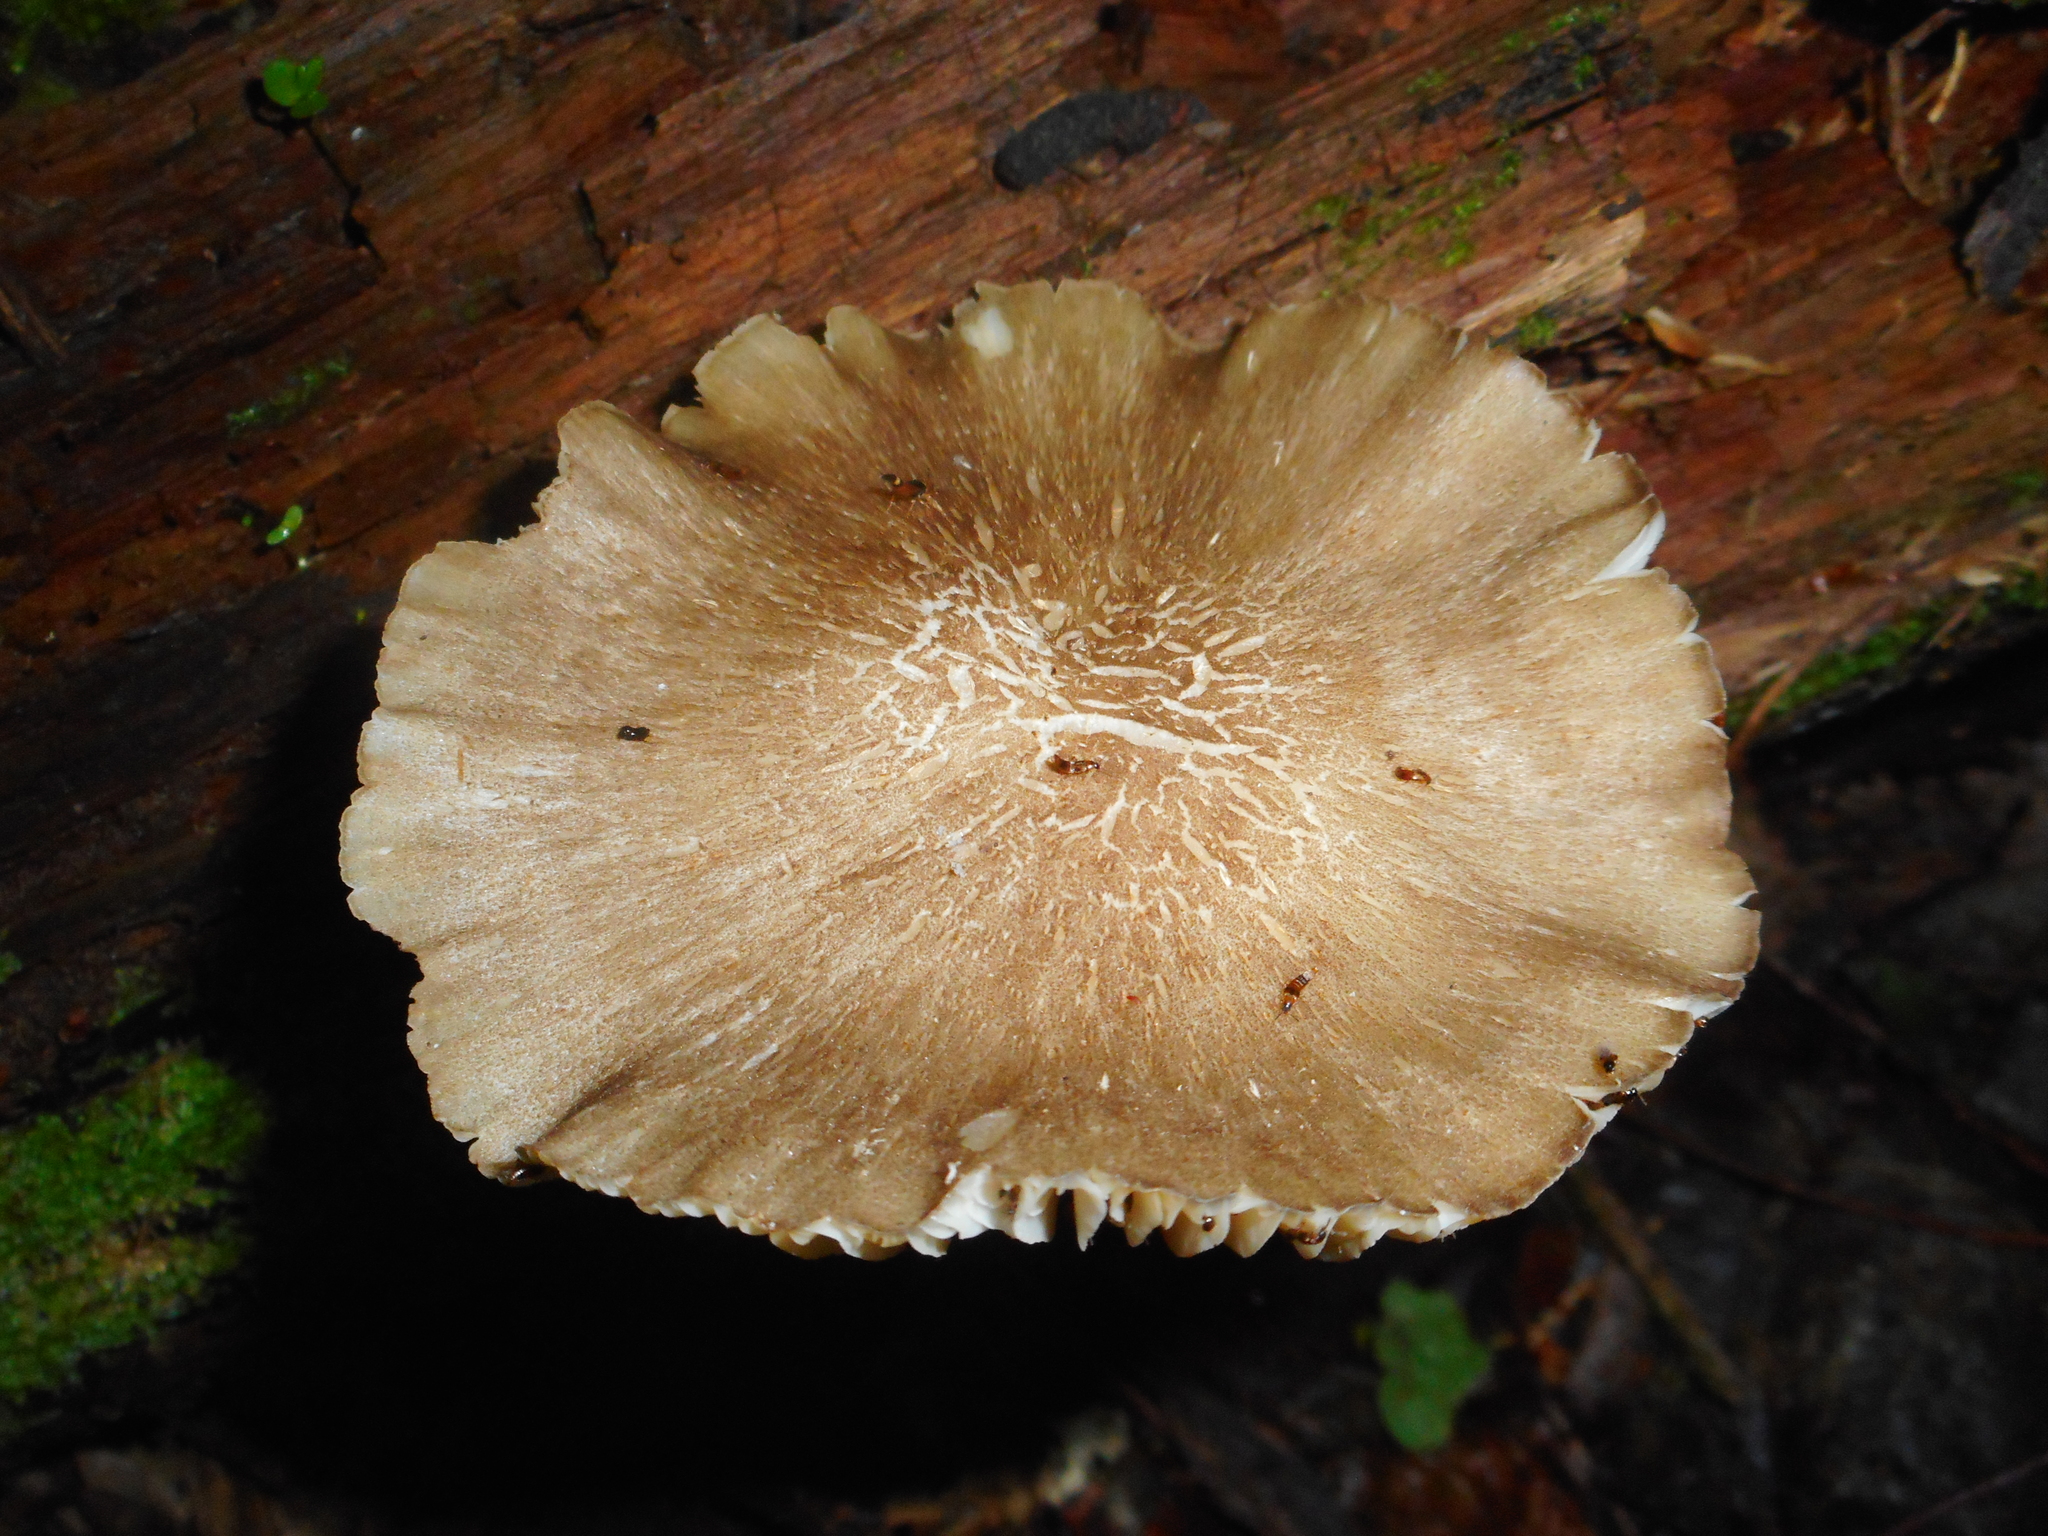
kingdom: Fungi
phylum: Basidiomycota
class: Agaricomycetes
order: Agaricales
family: Tricholomataceae
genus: Megacollybia
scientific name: Megacollybia platyphylla
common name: Whitelaced shank
